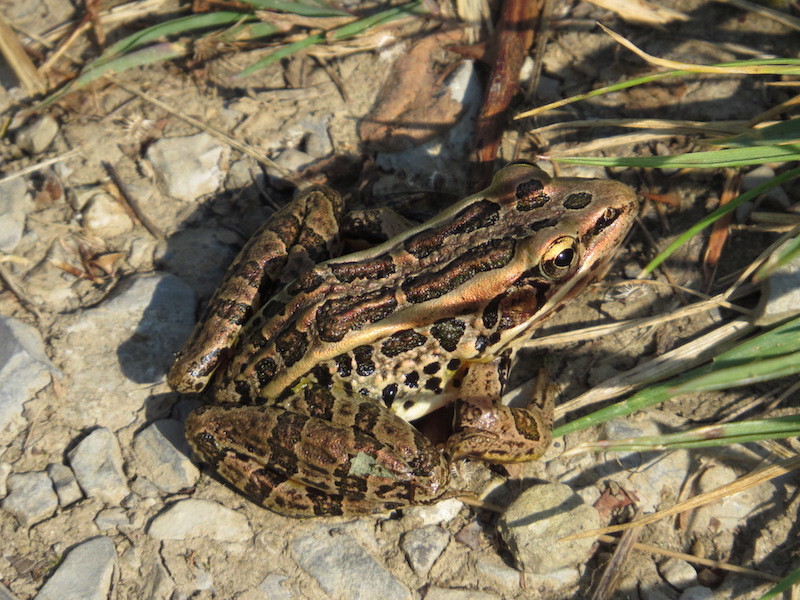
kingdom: Animalia
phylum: Chordata
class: Amphibia
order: Anura
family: Ranidae
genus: Lithobates
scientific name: Lithobates palustris
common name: Pickerel frog
